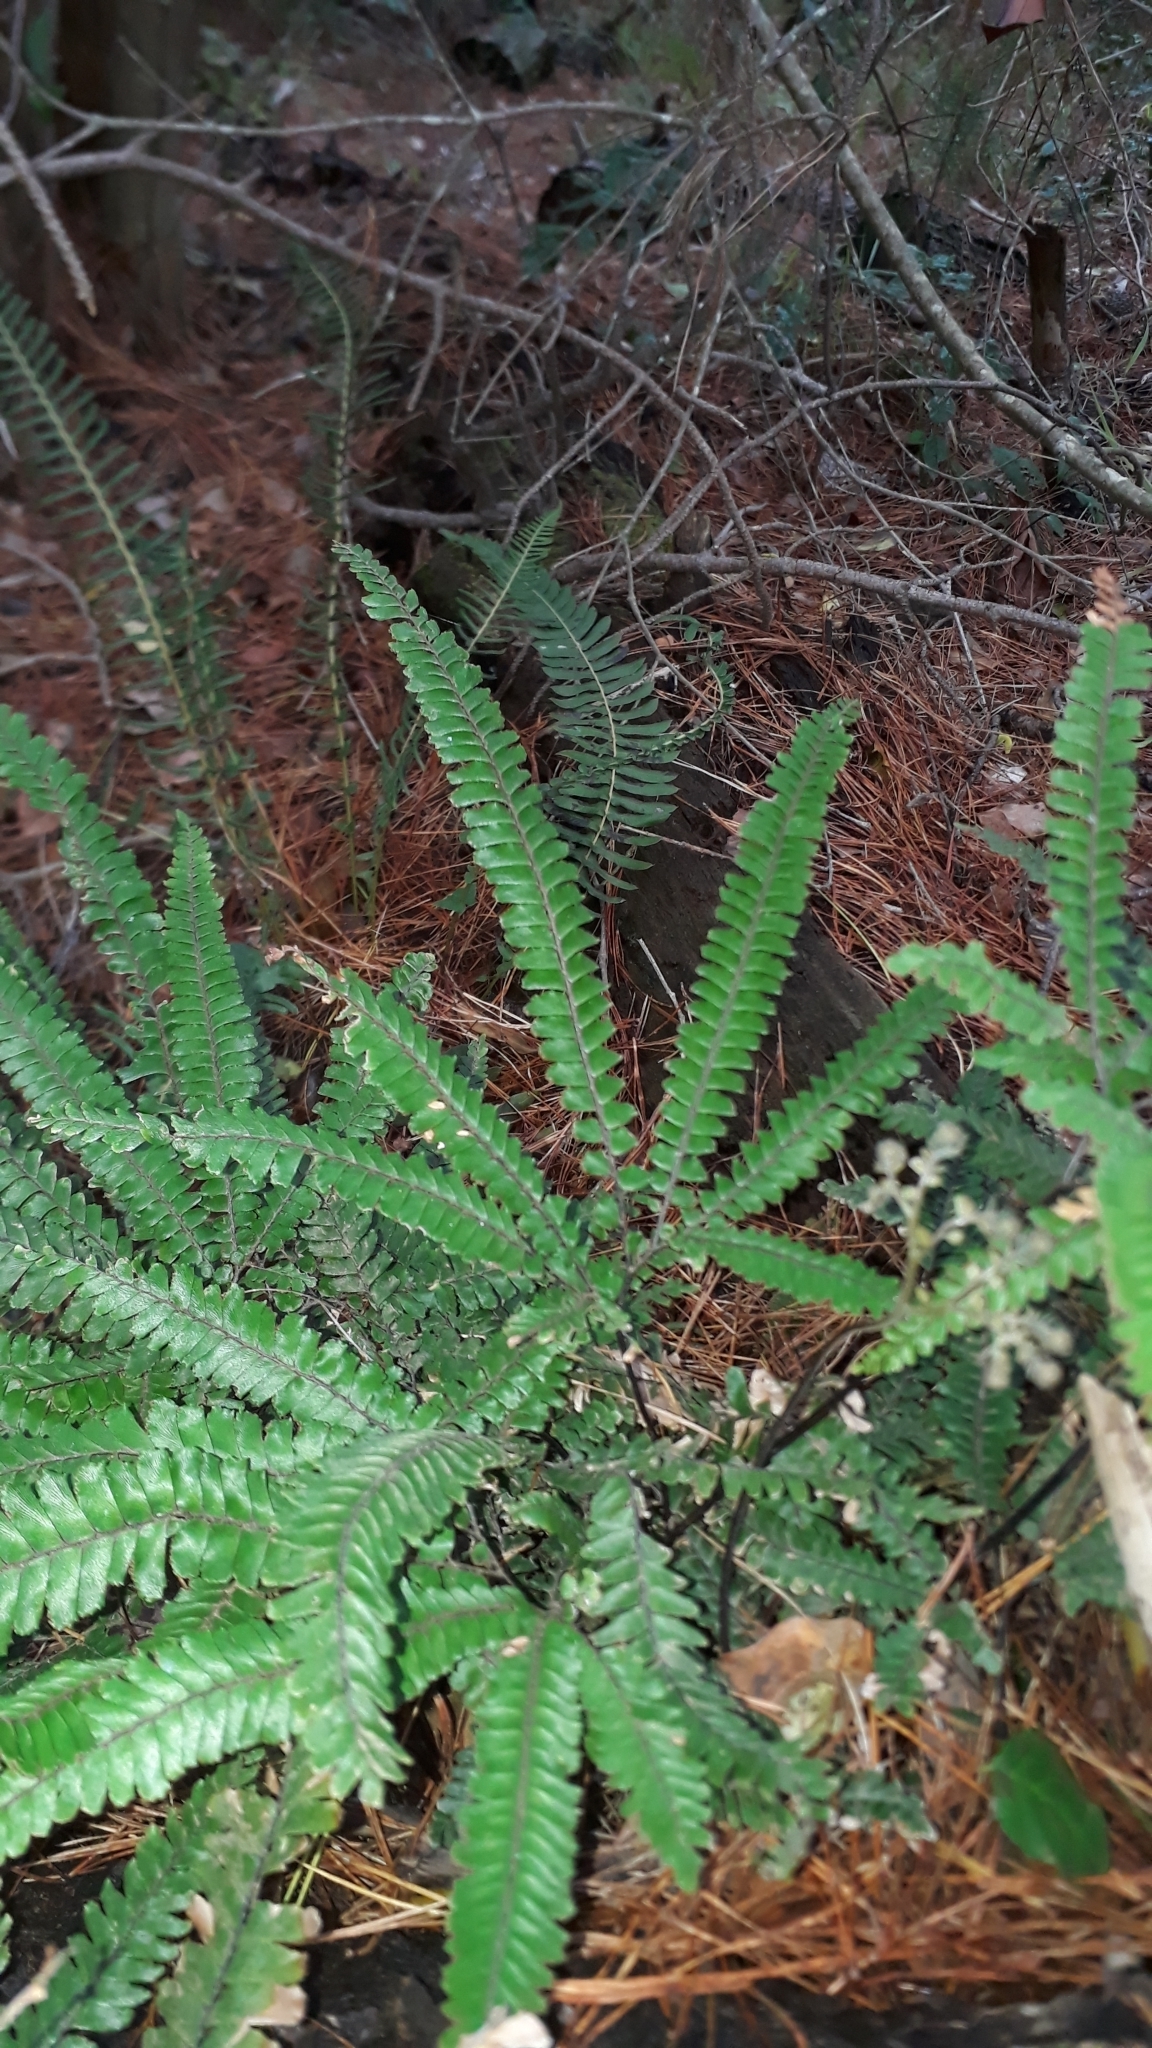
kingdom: Plantae
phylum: Tracheophyta
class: Polypodiopsida
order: Polypodiales
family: Pteridaceae
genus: Adiantum
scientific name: Adiantum hispidulum
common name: Rough maidenhair
